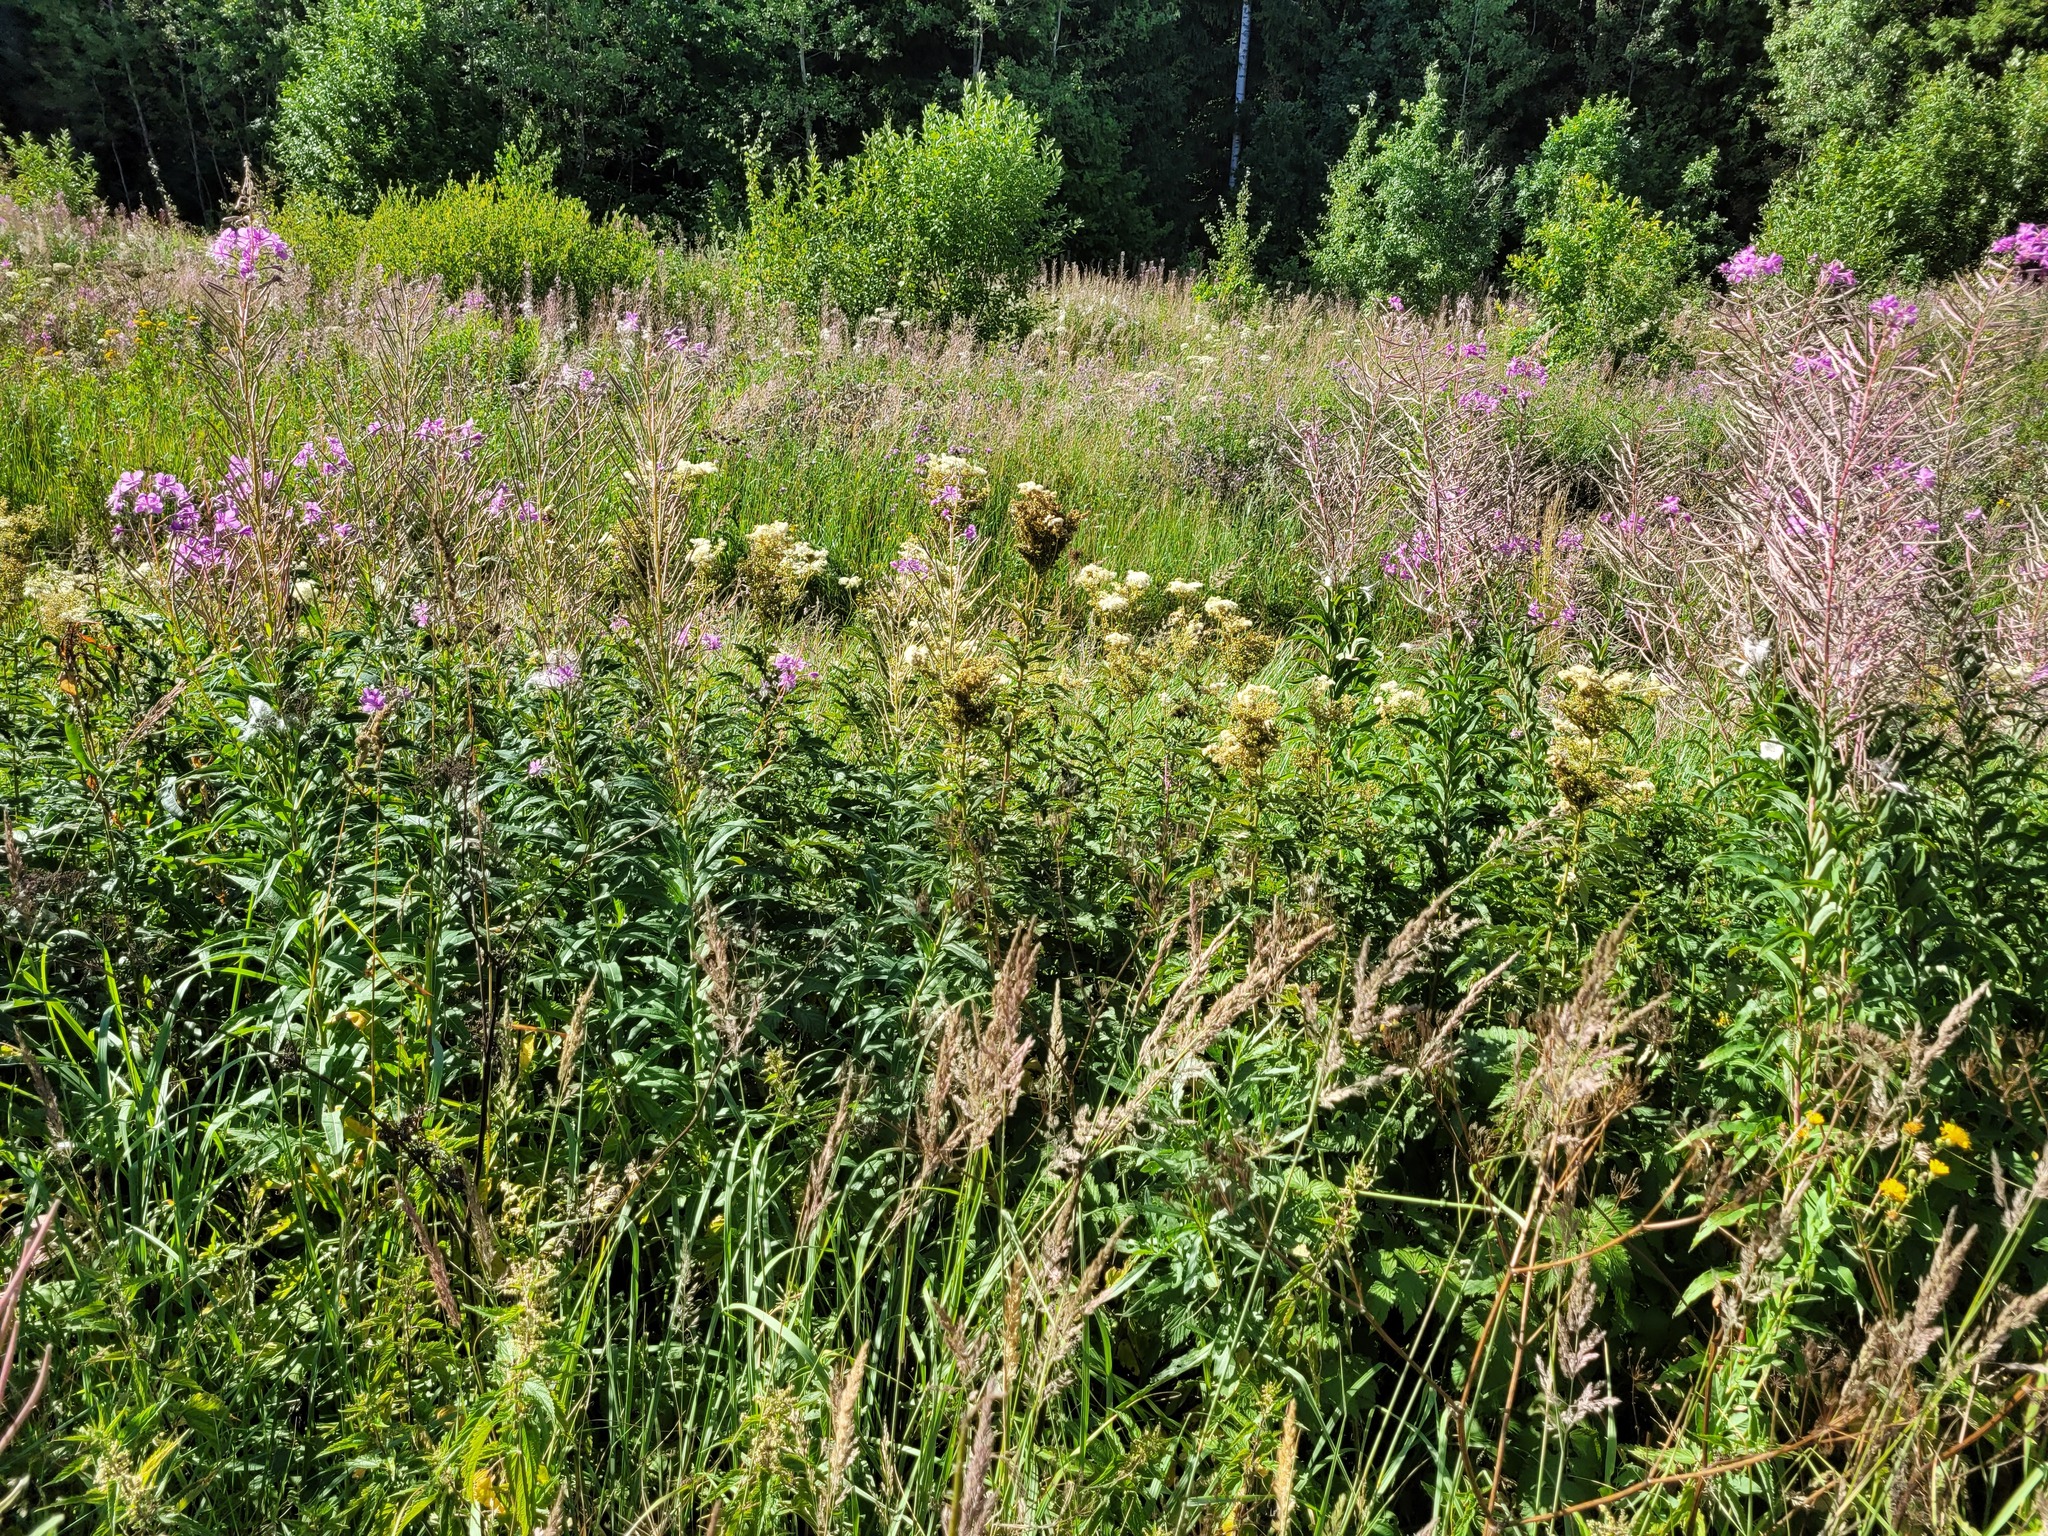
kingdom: Plantae
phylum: Tracheophyta
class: Magnoliopsida
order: Rosales
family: Rosaceae
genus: Filipendula
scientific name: Filipendula ulmaria
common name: Meadowsweet
